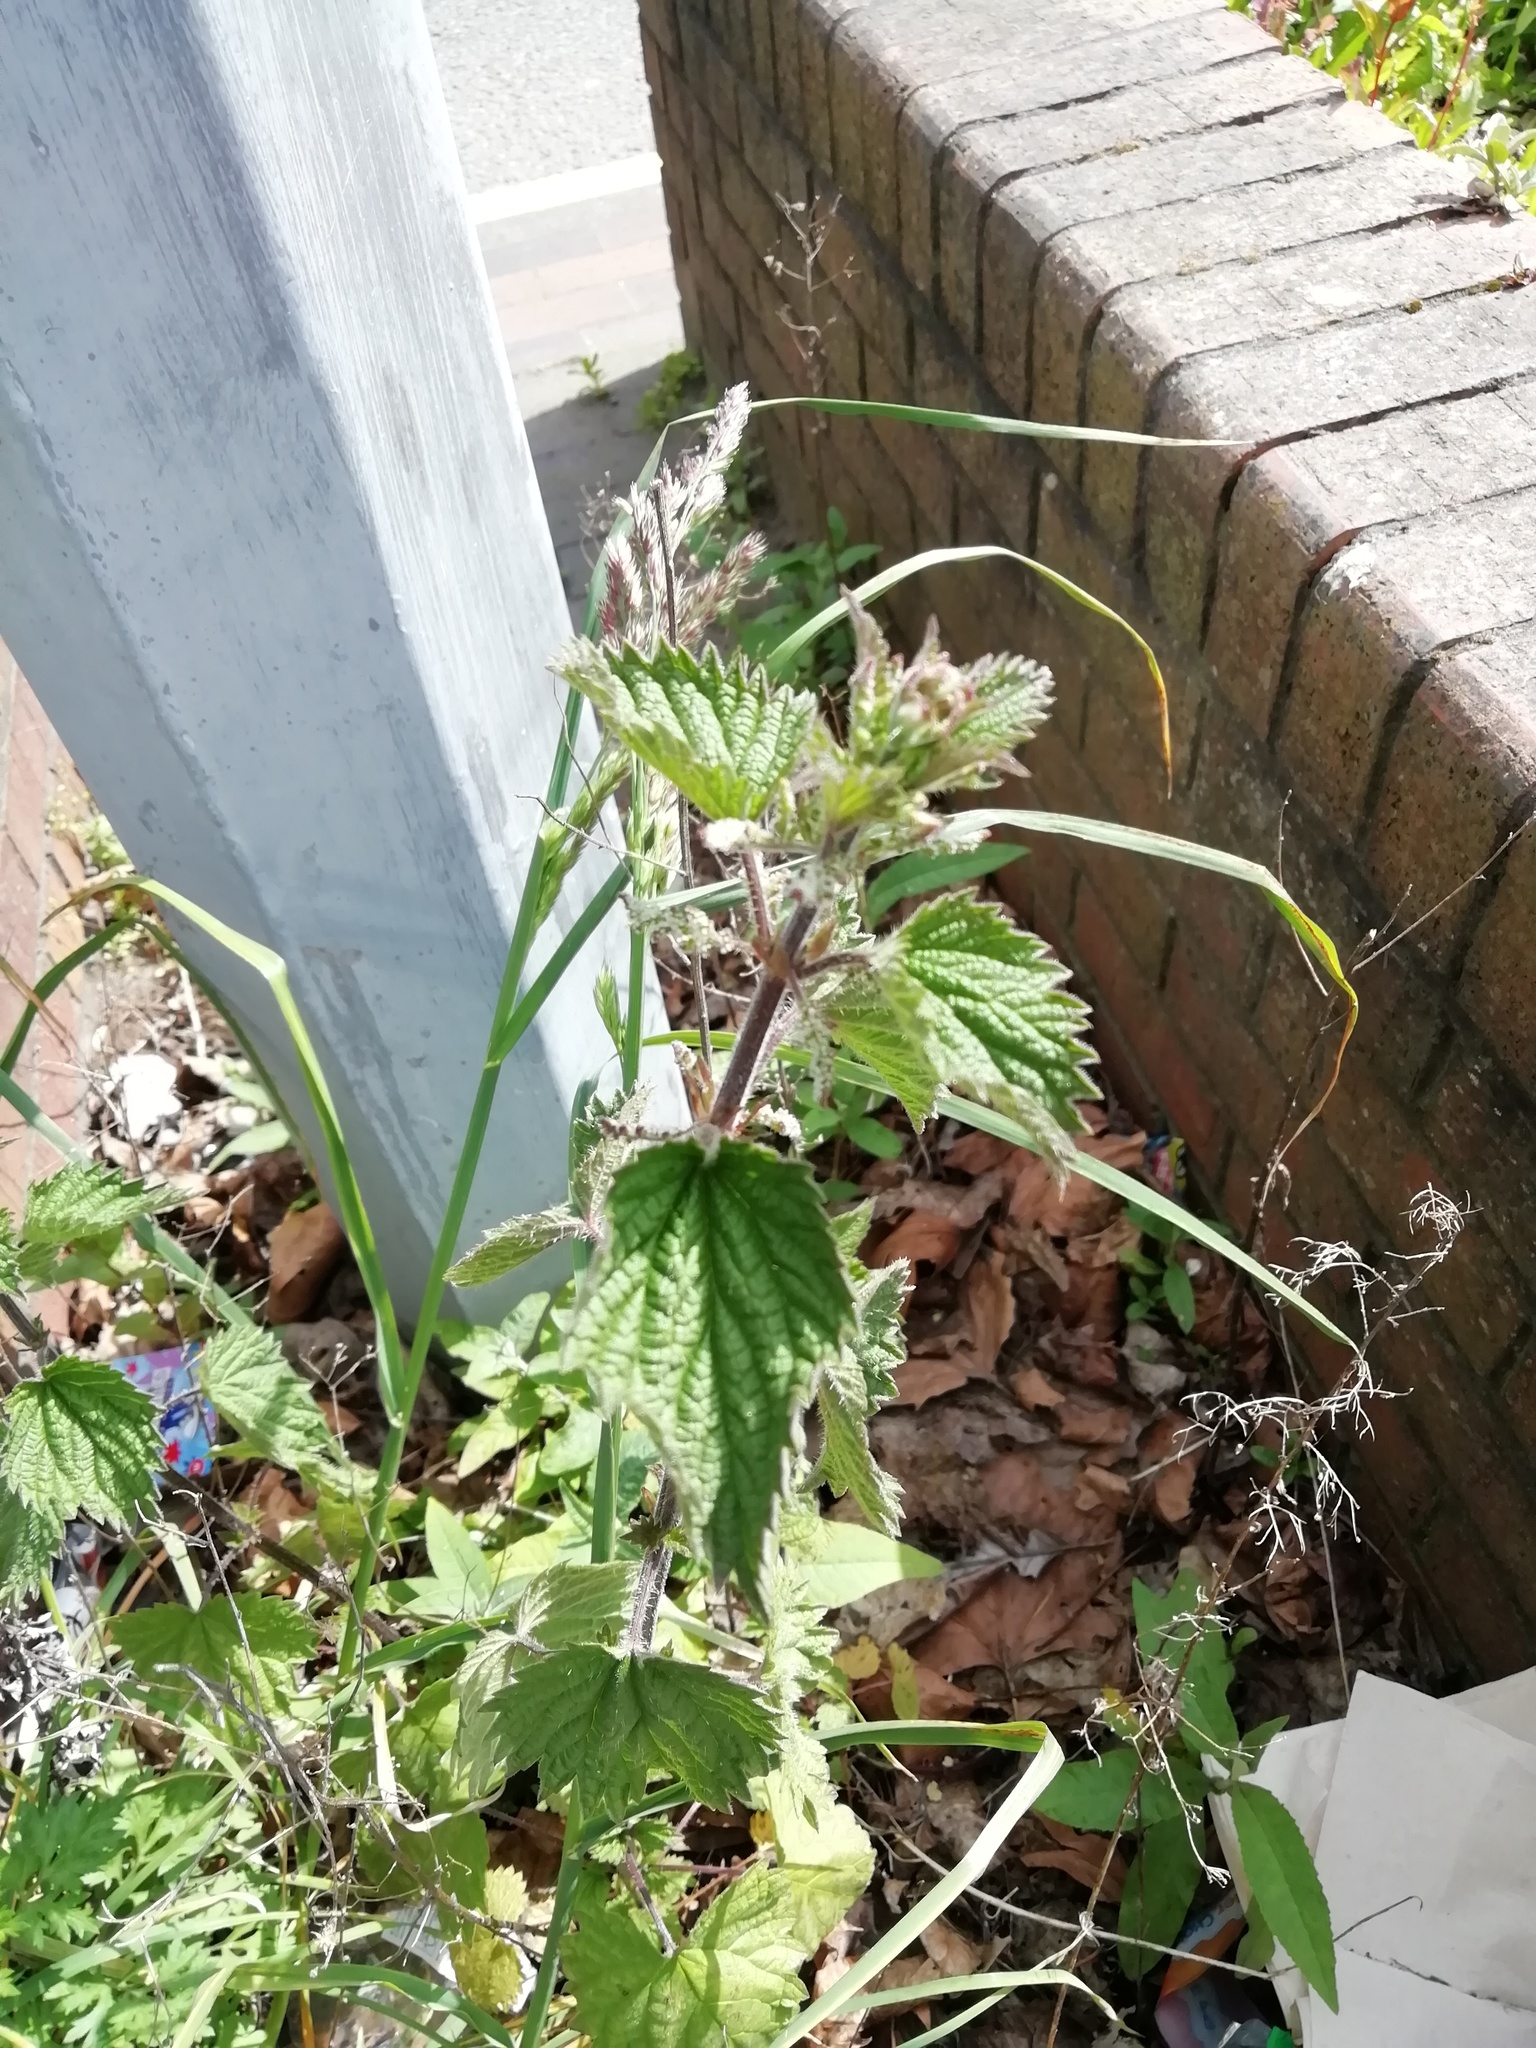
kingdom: Plantae
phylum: Tracheophyta
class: Magnoliopsida
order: Rosales
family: Urticaceae
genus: Urtica
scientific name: Urtica dioica
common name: Common nettle
